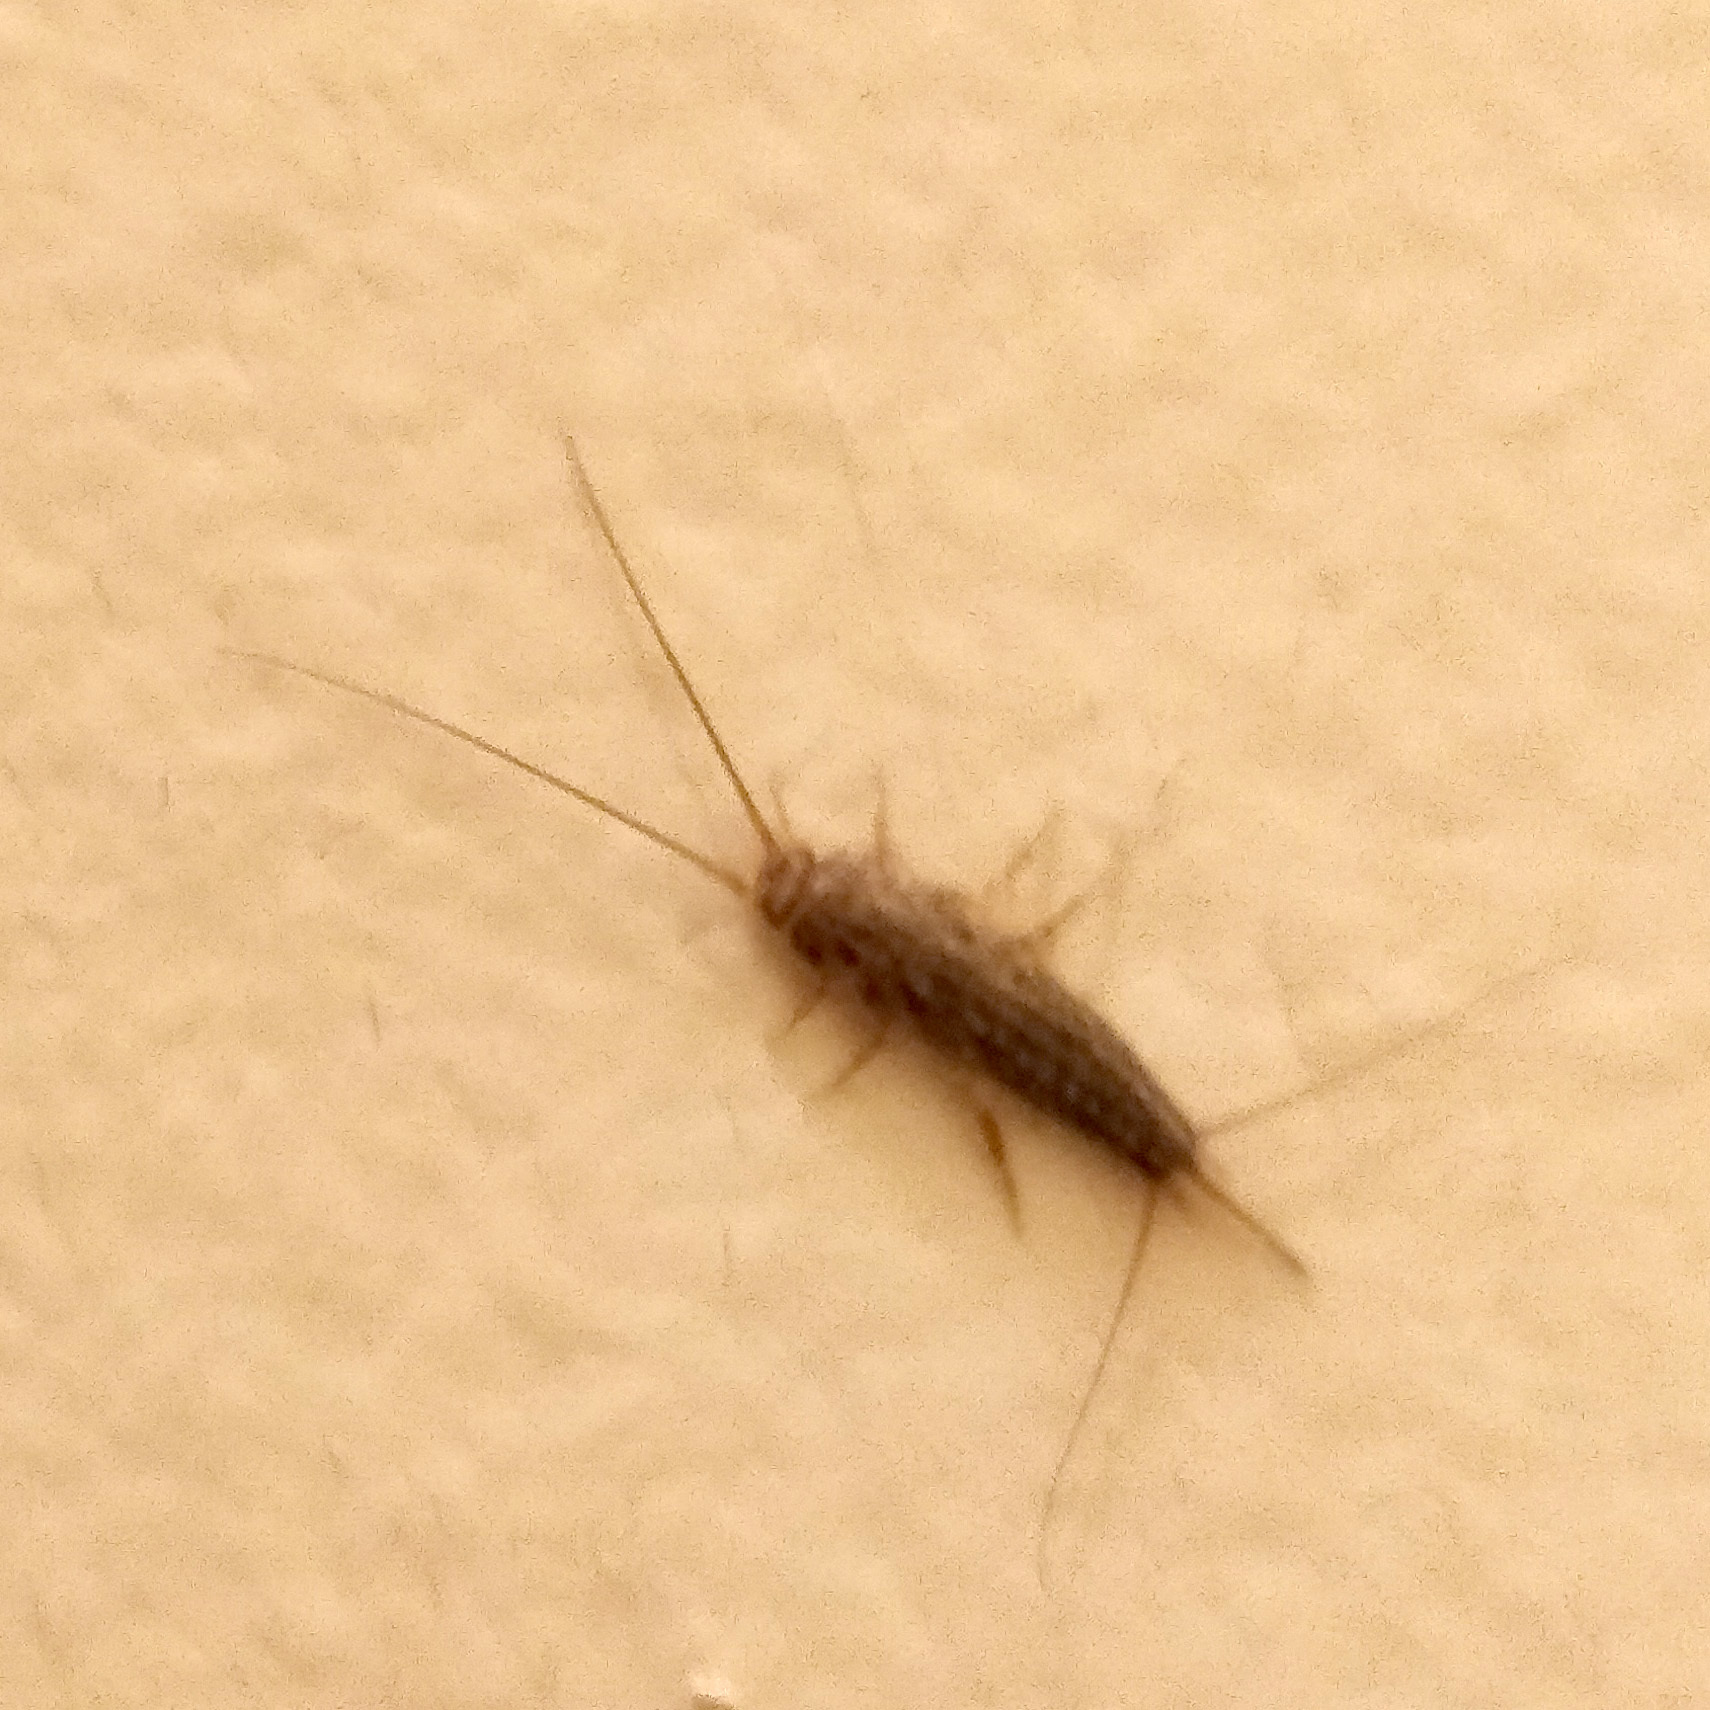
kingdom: Animalia
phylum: Arthropoda
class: Insecta
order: Zygentoma
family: Lepismatidae
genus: Ctenolepisma
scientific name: Ctenolepisma lineata
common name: Four-lined silverfish
